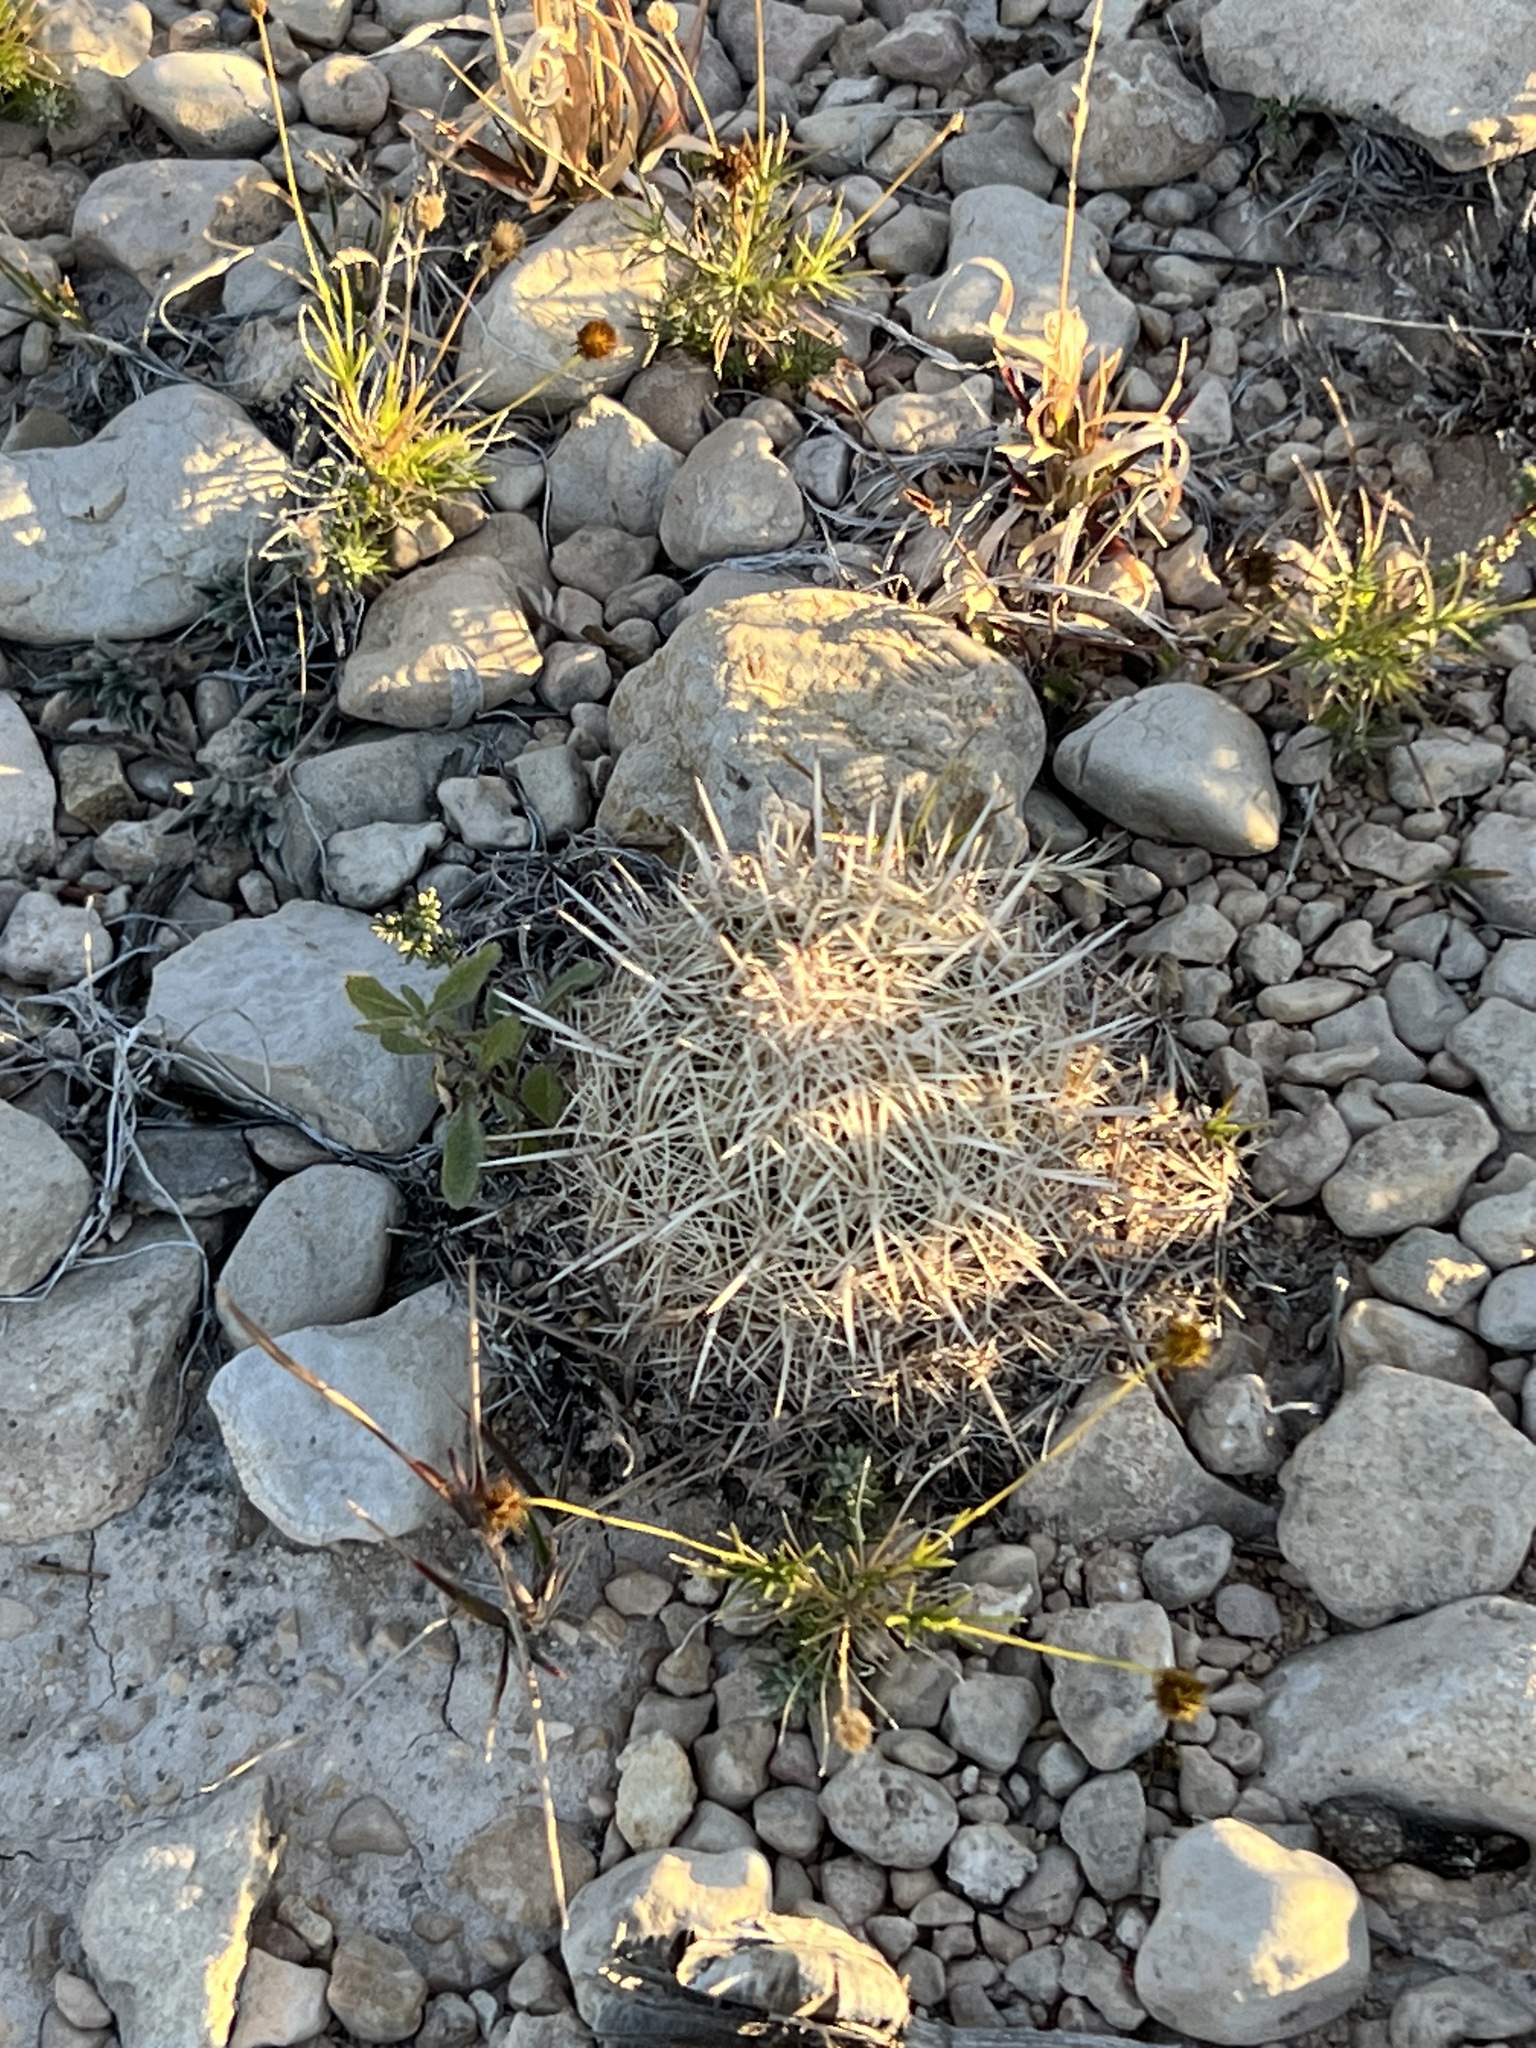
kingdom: Plantae
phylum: Tracheophyta
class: Magnoliopsida
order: Caryophyllales
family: Cactaceae
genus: Coryphantha
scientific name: Coryphantha echinus
